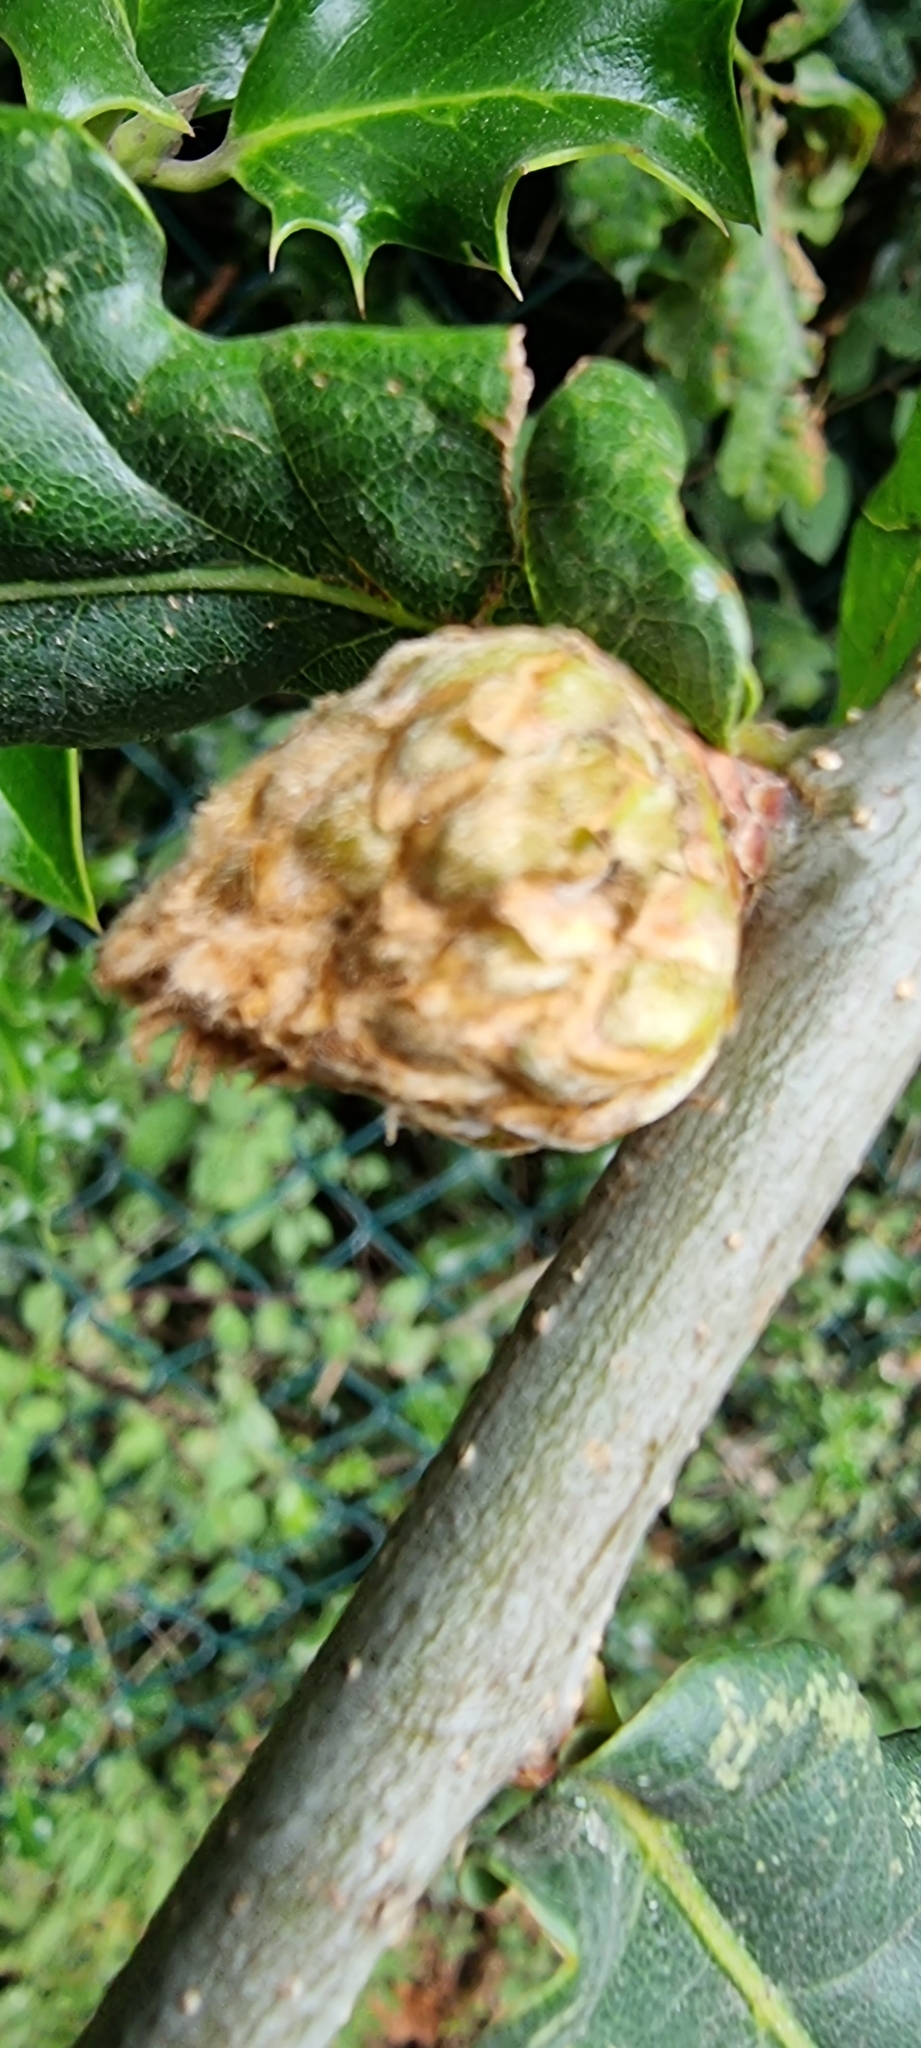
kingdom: Animalia
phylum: Arthropoda
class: Insecta
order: Hymenoptera
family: Cynipidae
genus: Andricus
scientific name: Andricus foecundatrix
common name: Artichoke gall
